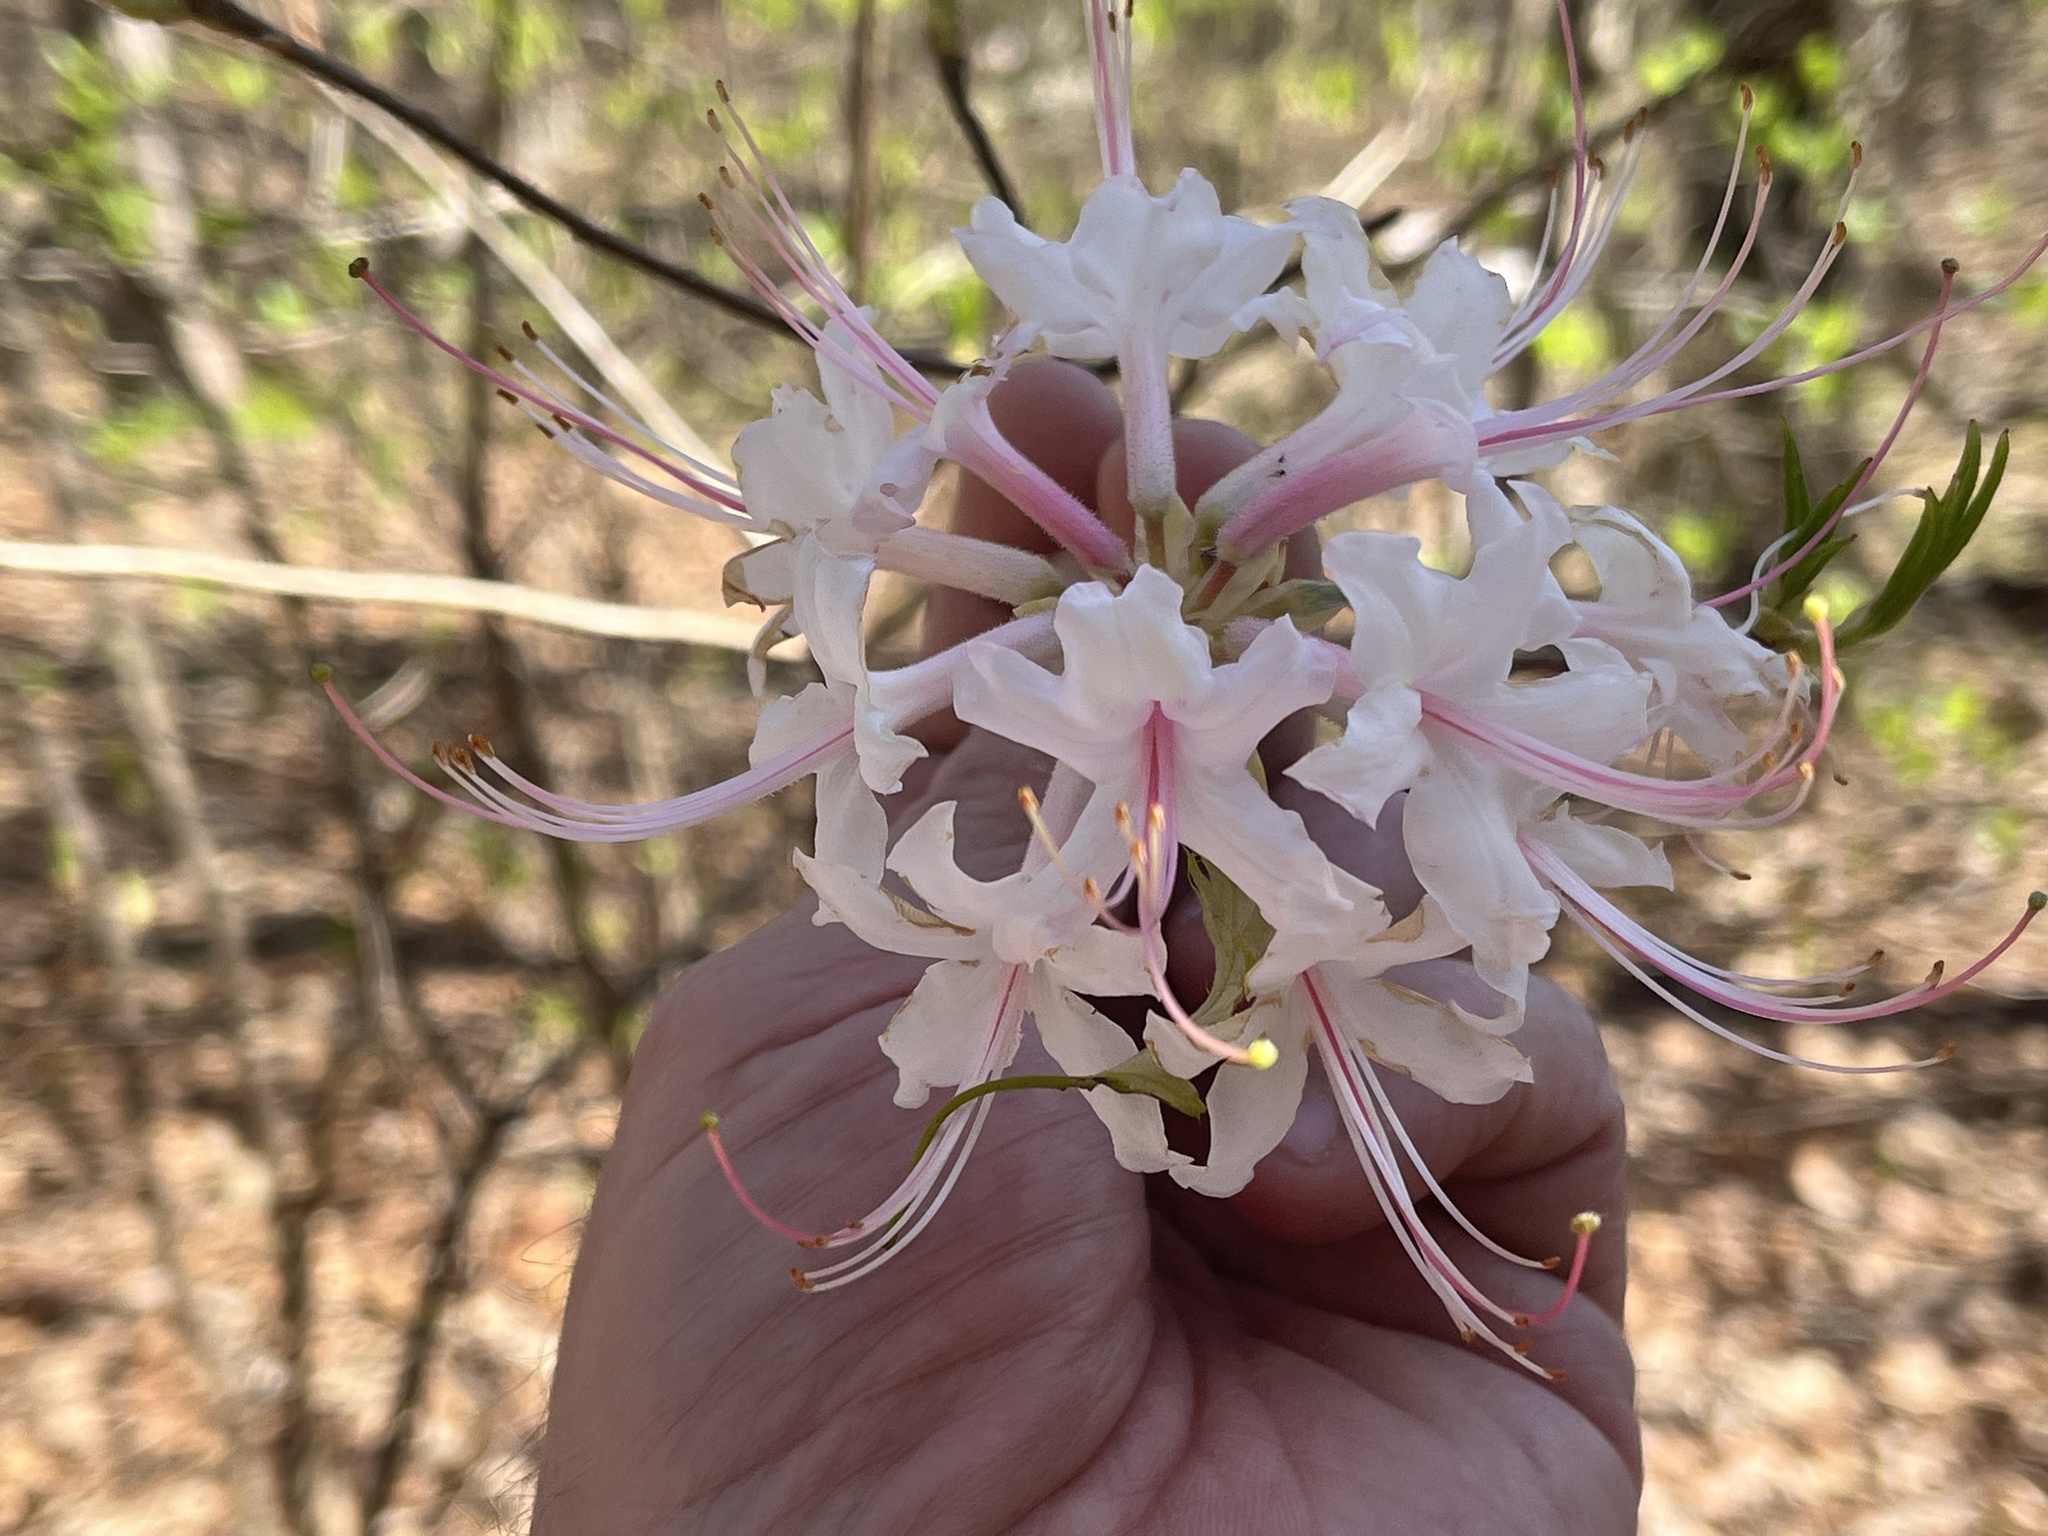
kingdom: Plantae
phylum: Tracheophyta
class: Magnoliopsida
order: Ericales
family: Ericaceae
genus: Rhododendron
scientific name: Rhododendron canescens
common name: Mountain azalea
